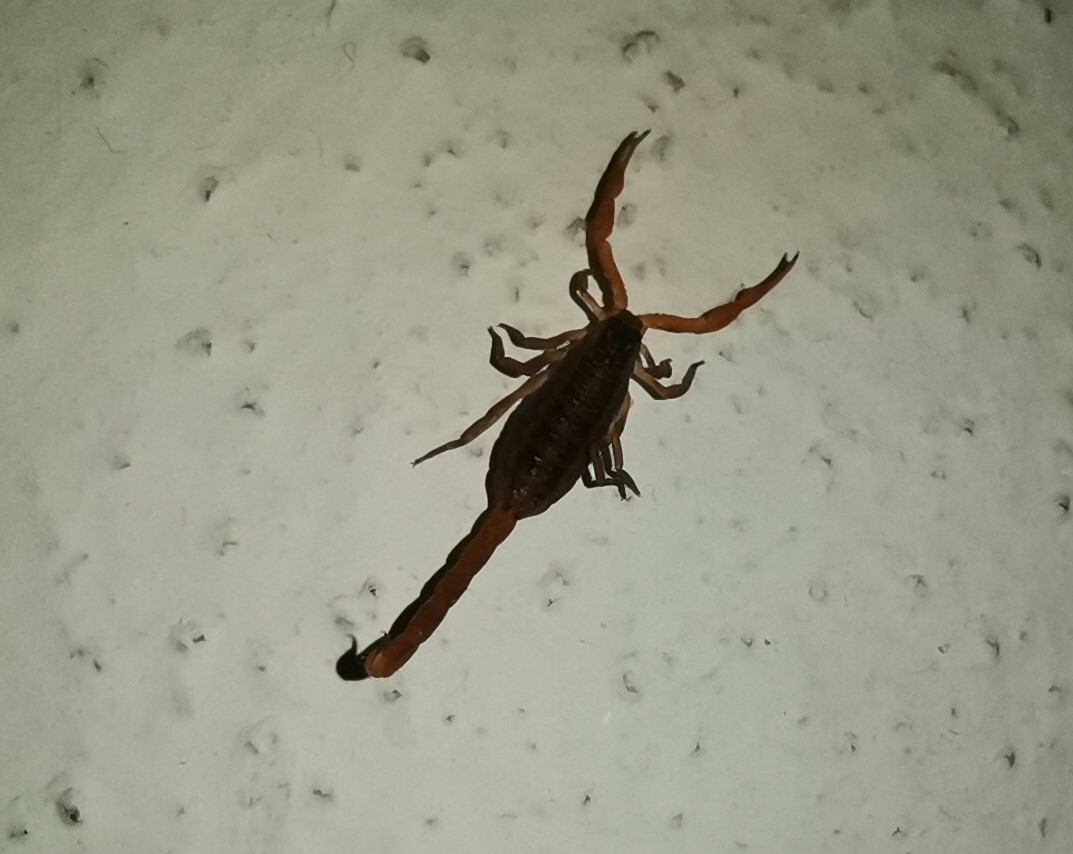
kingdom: Animalia
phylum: Arthropoda
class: Arachnida
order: Scorpiones
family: Buthidae
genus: Centruroides
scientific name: Centruroides ornatus
